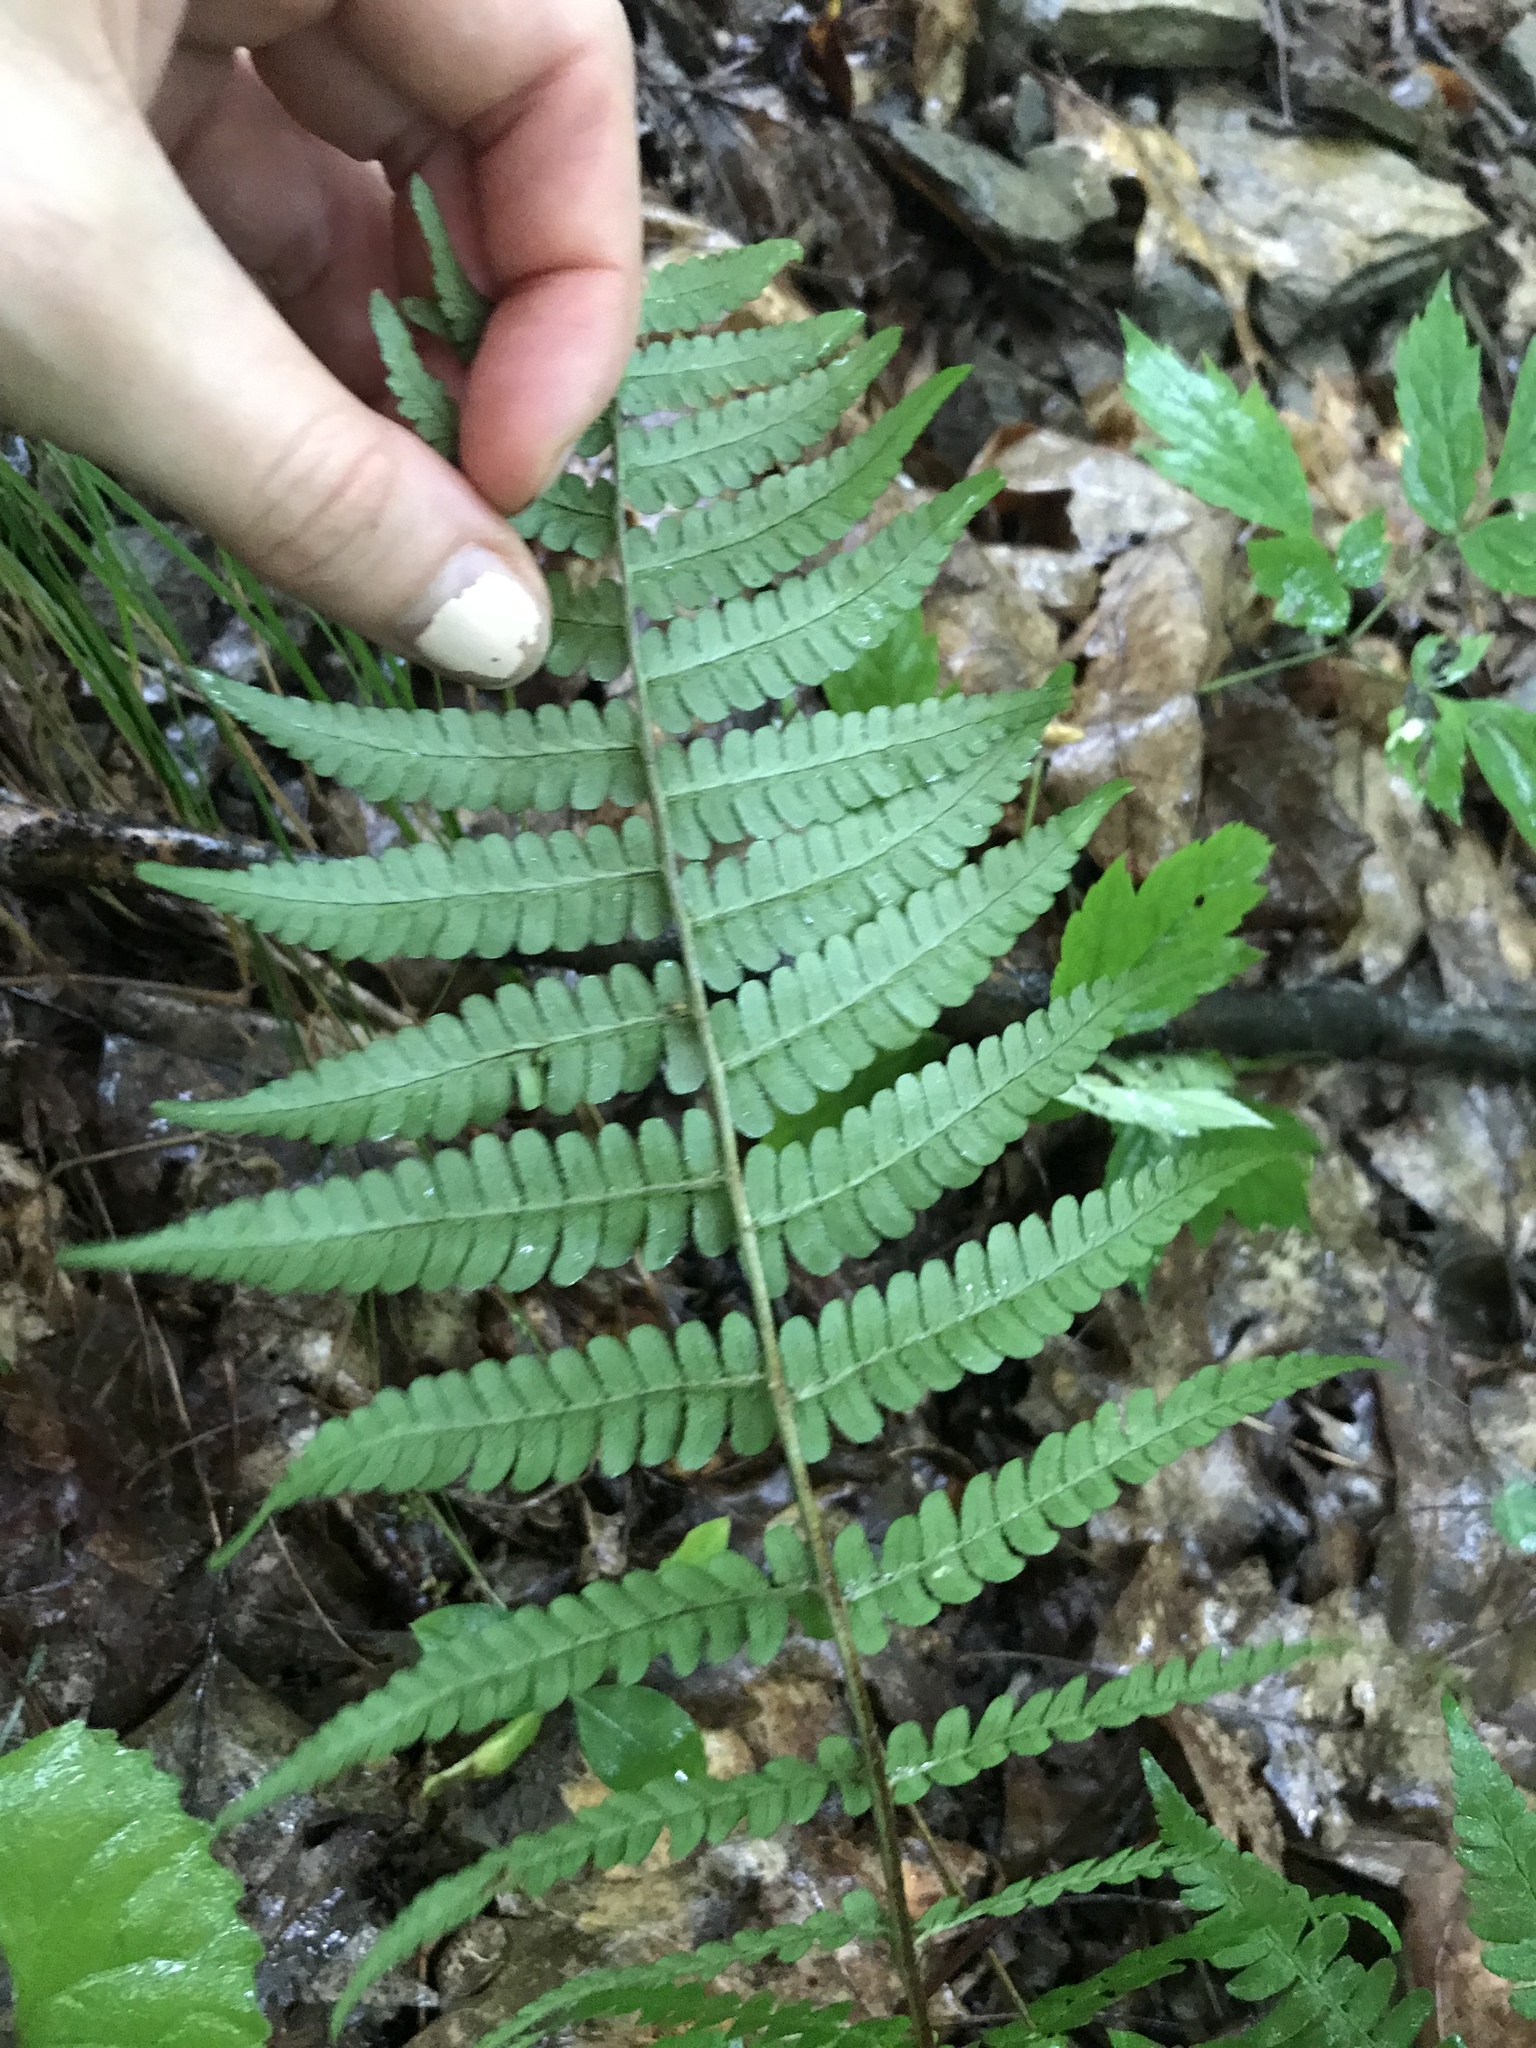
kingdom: Plantae
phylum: Tracheophyta
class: Polypodiopsida
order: Polypodiales
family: Dryopteridaceae
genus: Dryopteris
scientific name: Dryopteris marginalis
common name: Marginal wood fern
